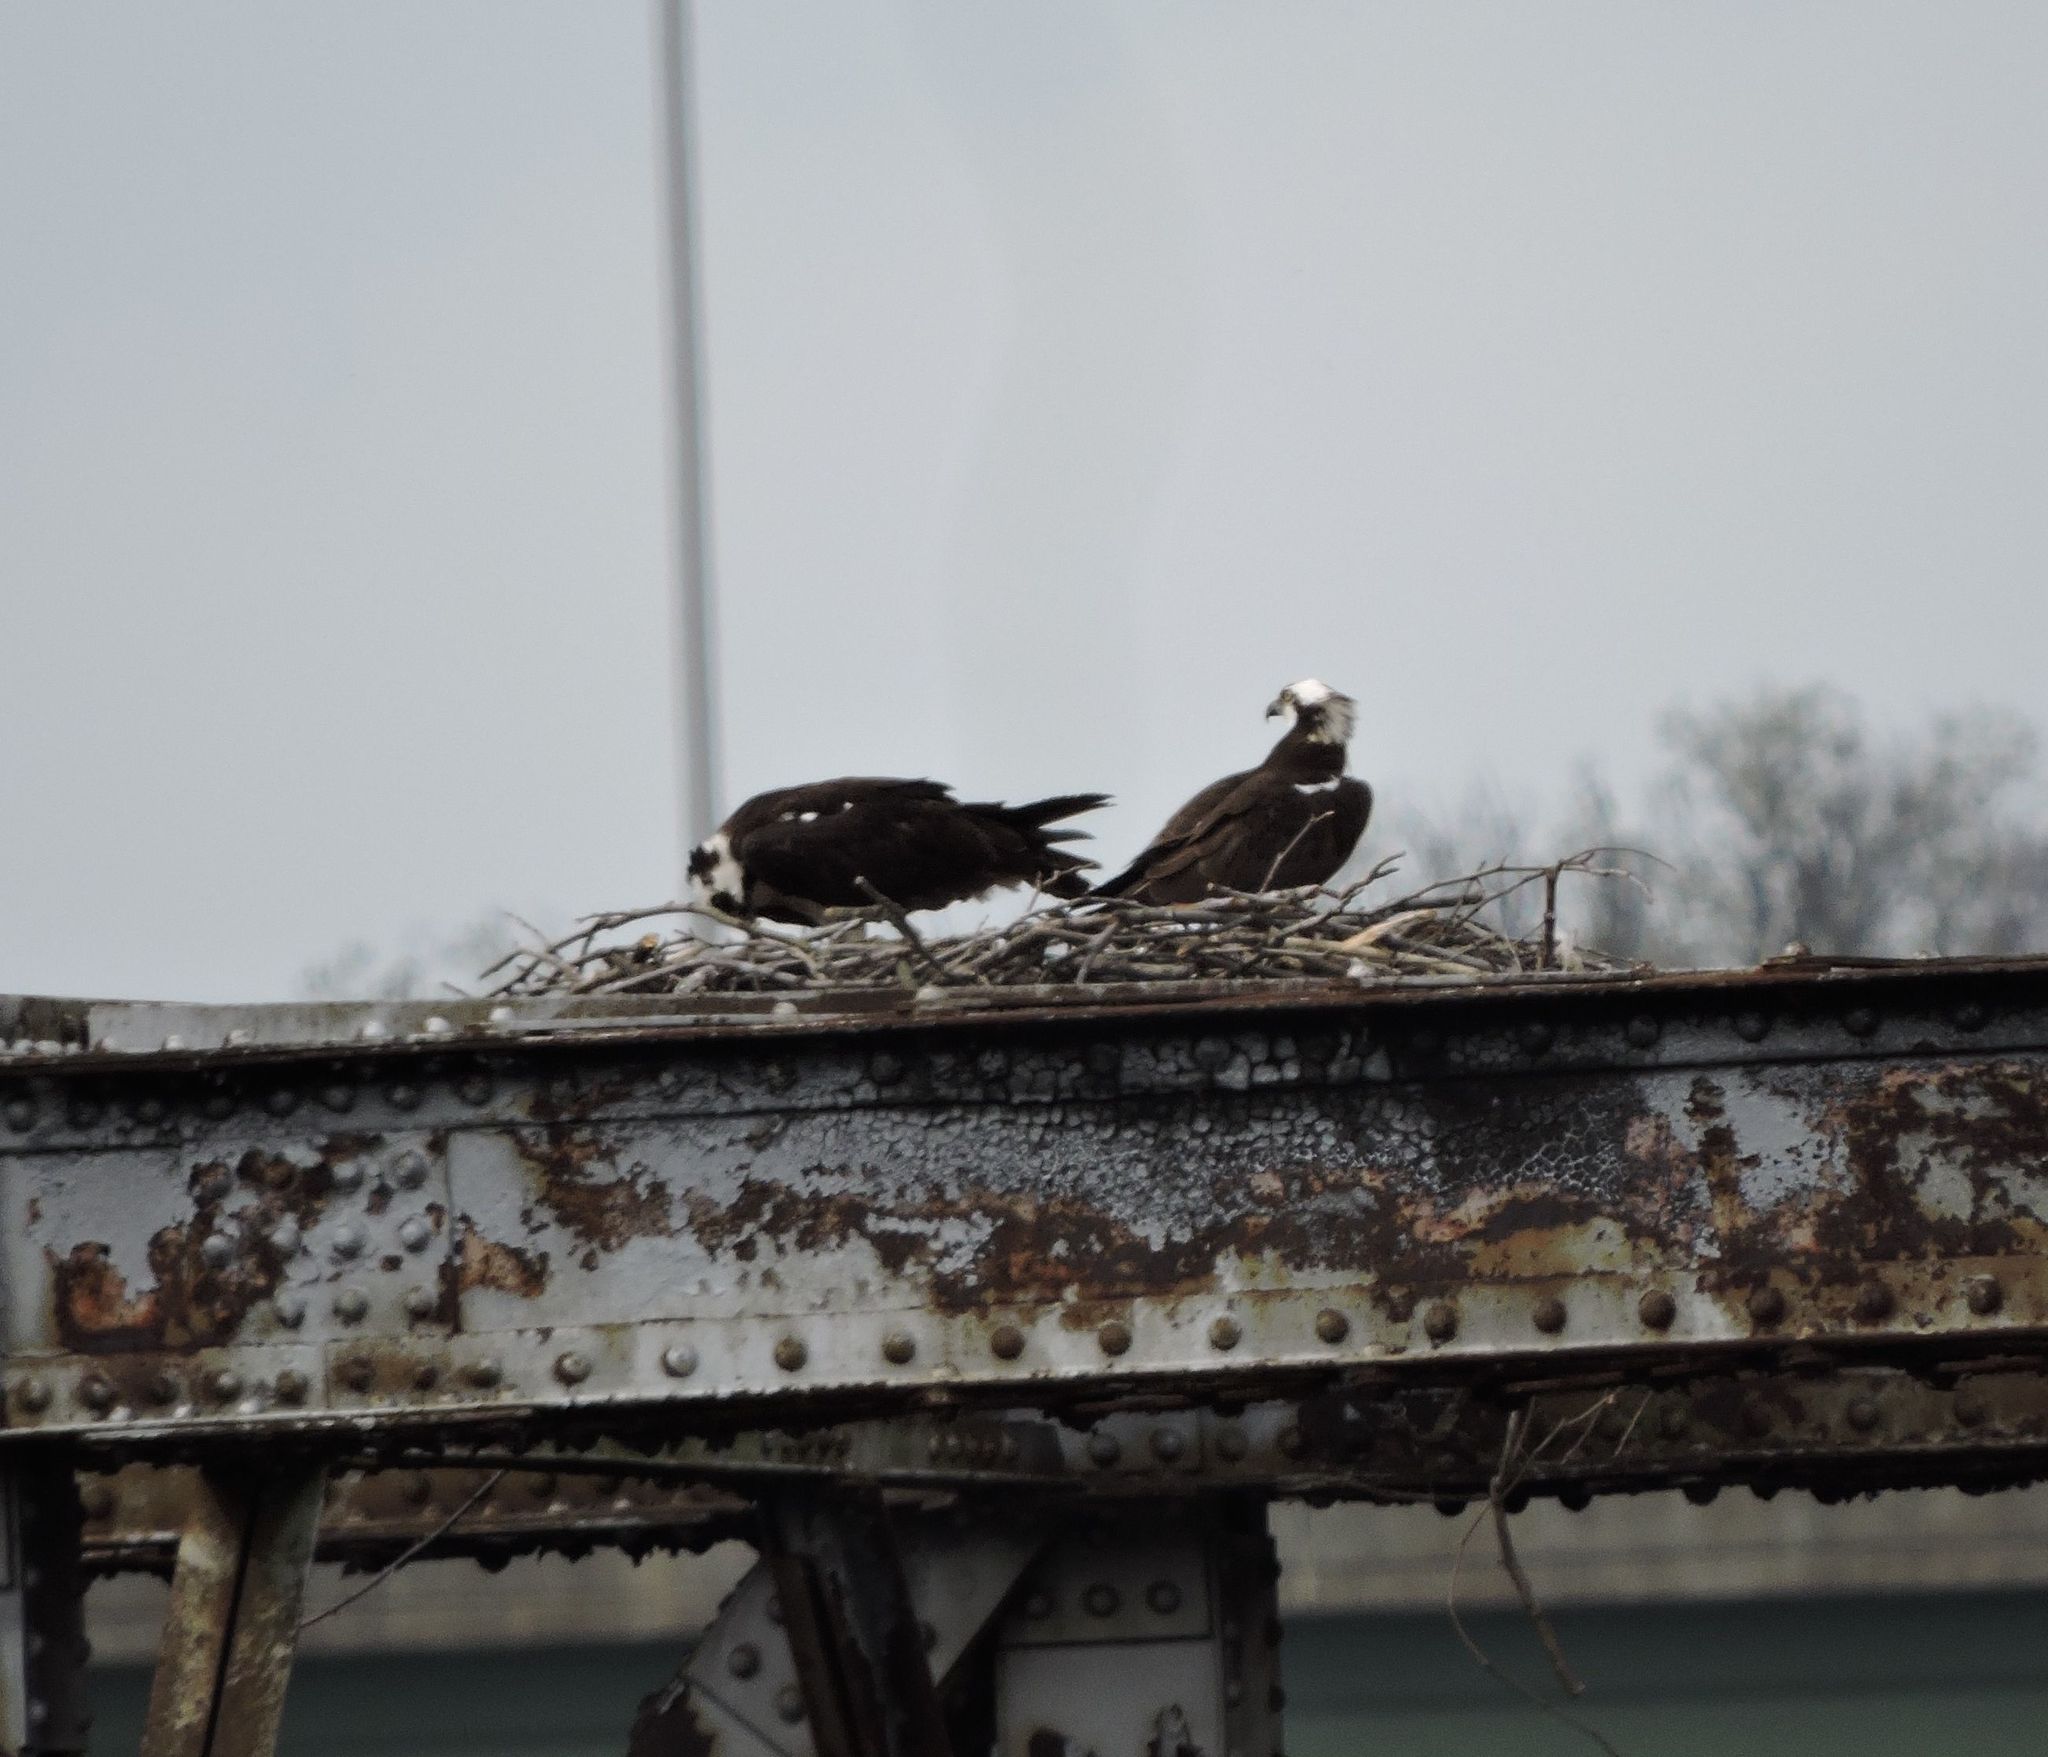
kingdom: Animalia
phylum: Chordata
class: Aves
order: Accipitriformes
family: Pandionidae
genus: Pandion
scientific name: Pandion haliaetus
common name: Osprey
